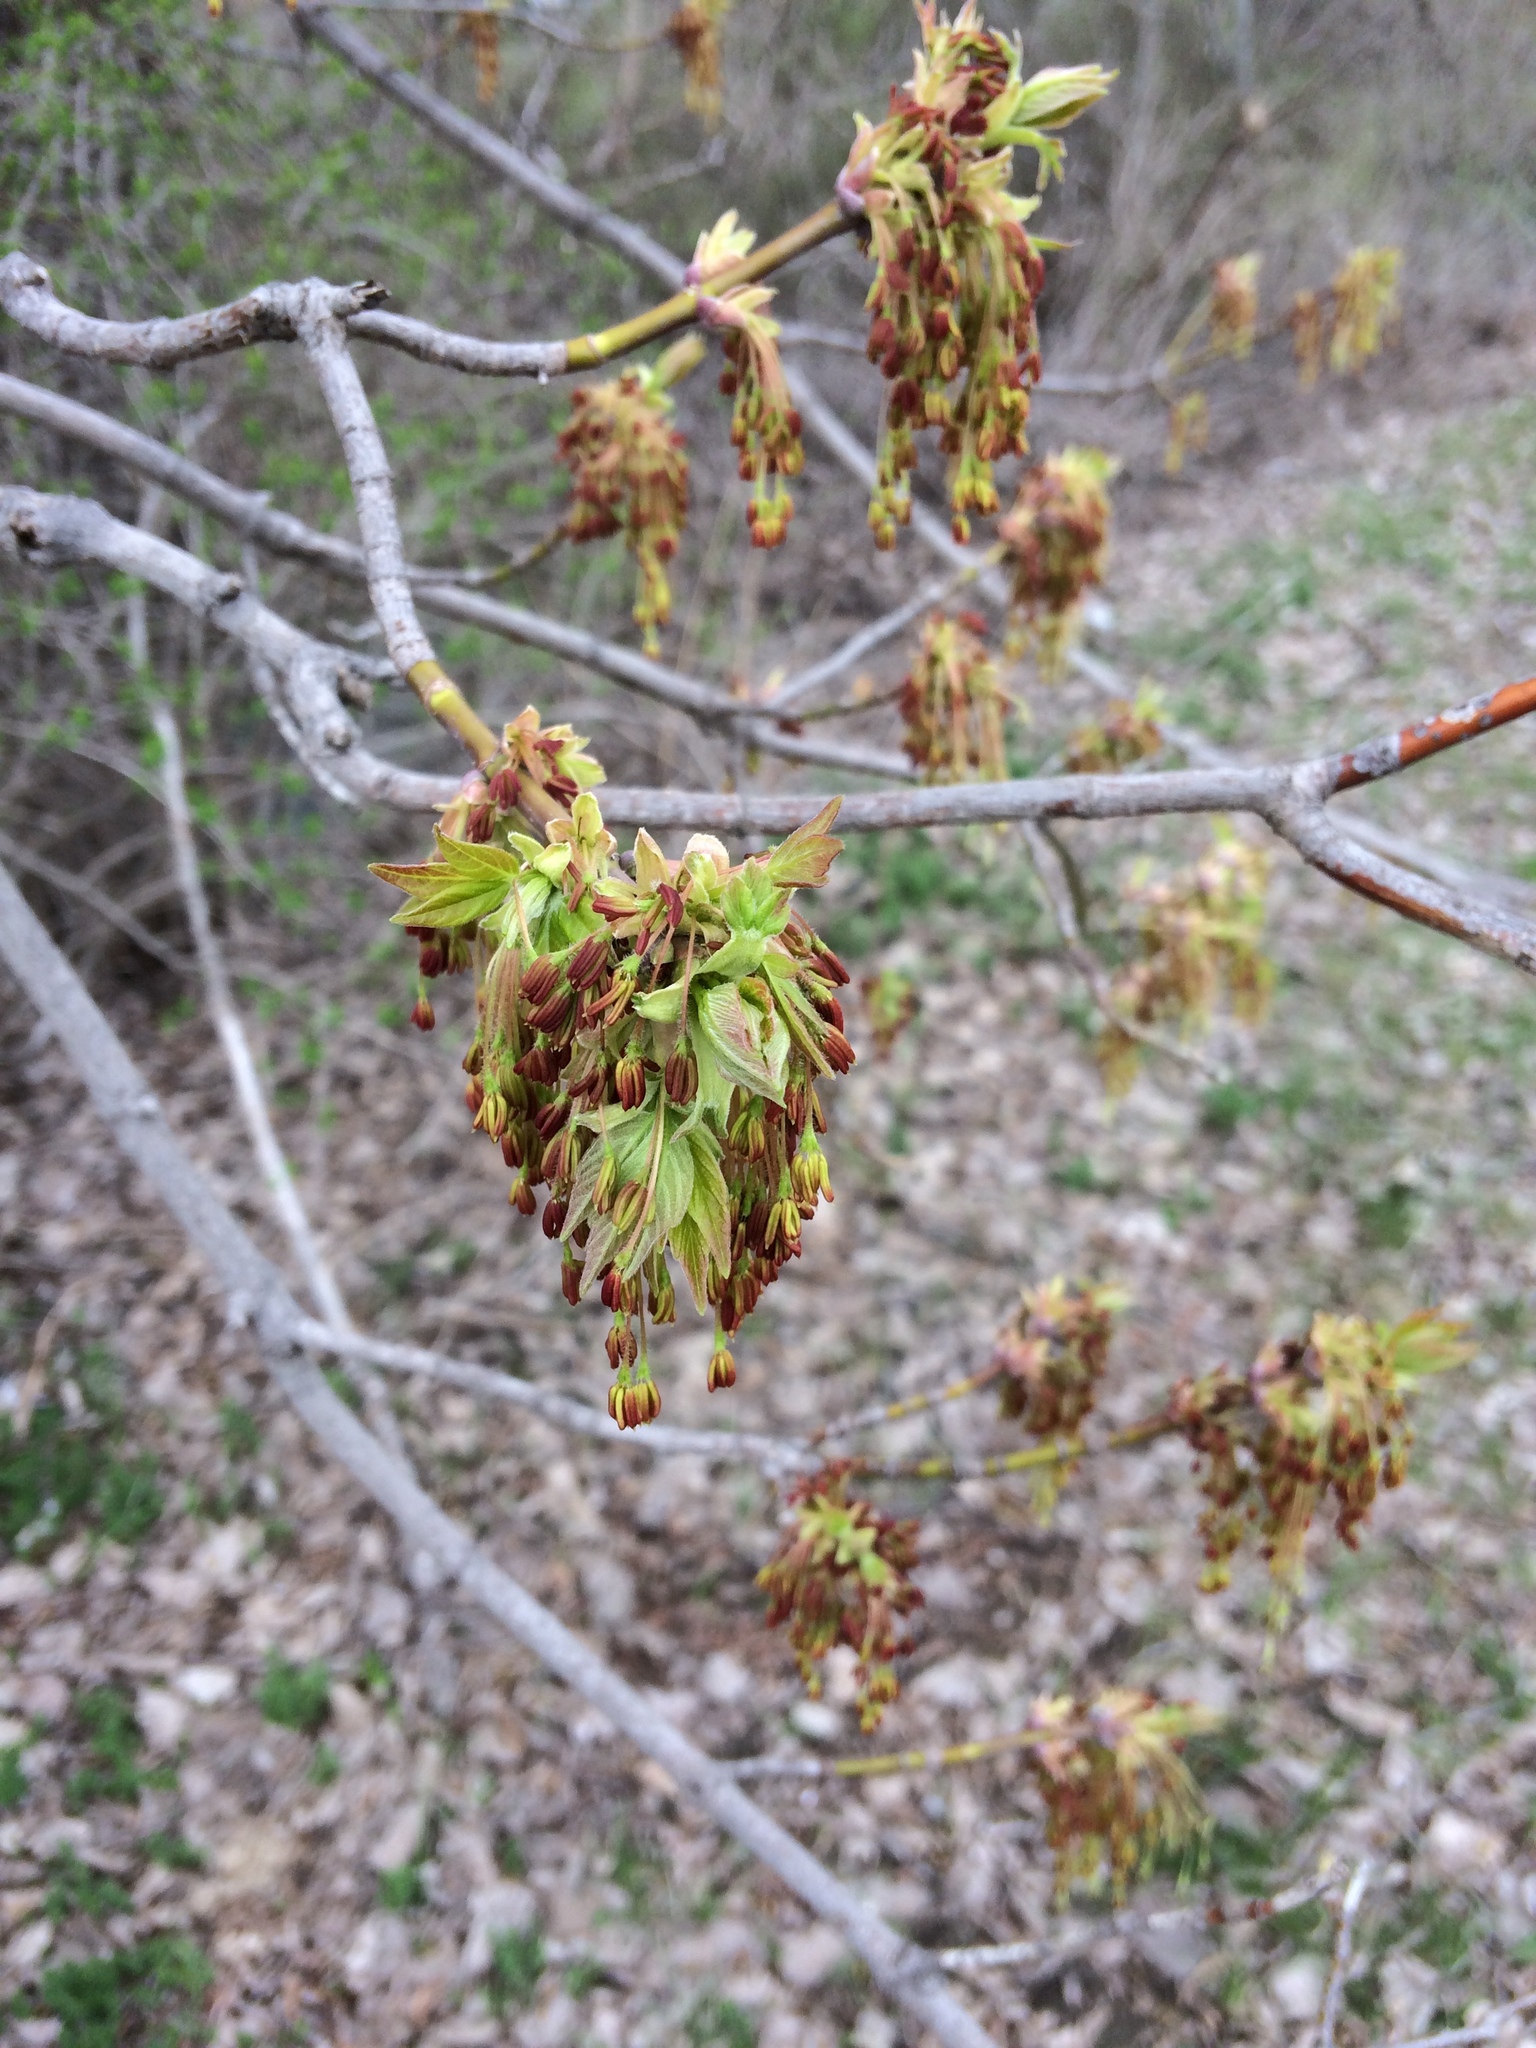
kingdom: Plantae
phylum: Tracheophyta
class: Magnoliopsida
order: Sapindales
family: Sapindaceae
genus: Acer
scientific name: Acer negundo
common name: Ashleaf maple
